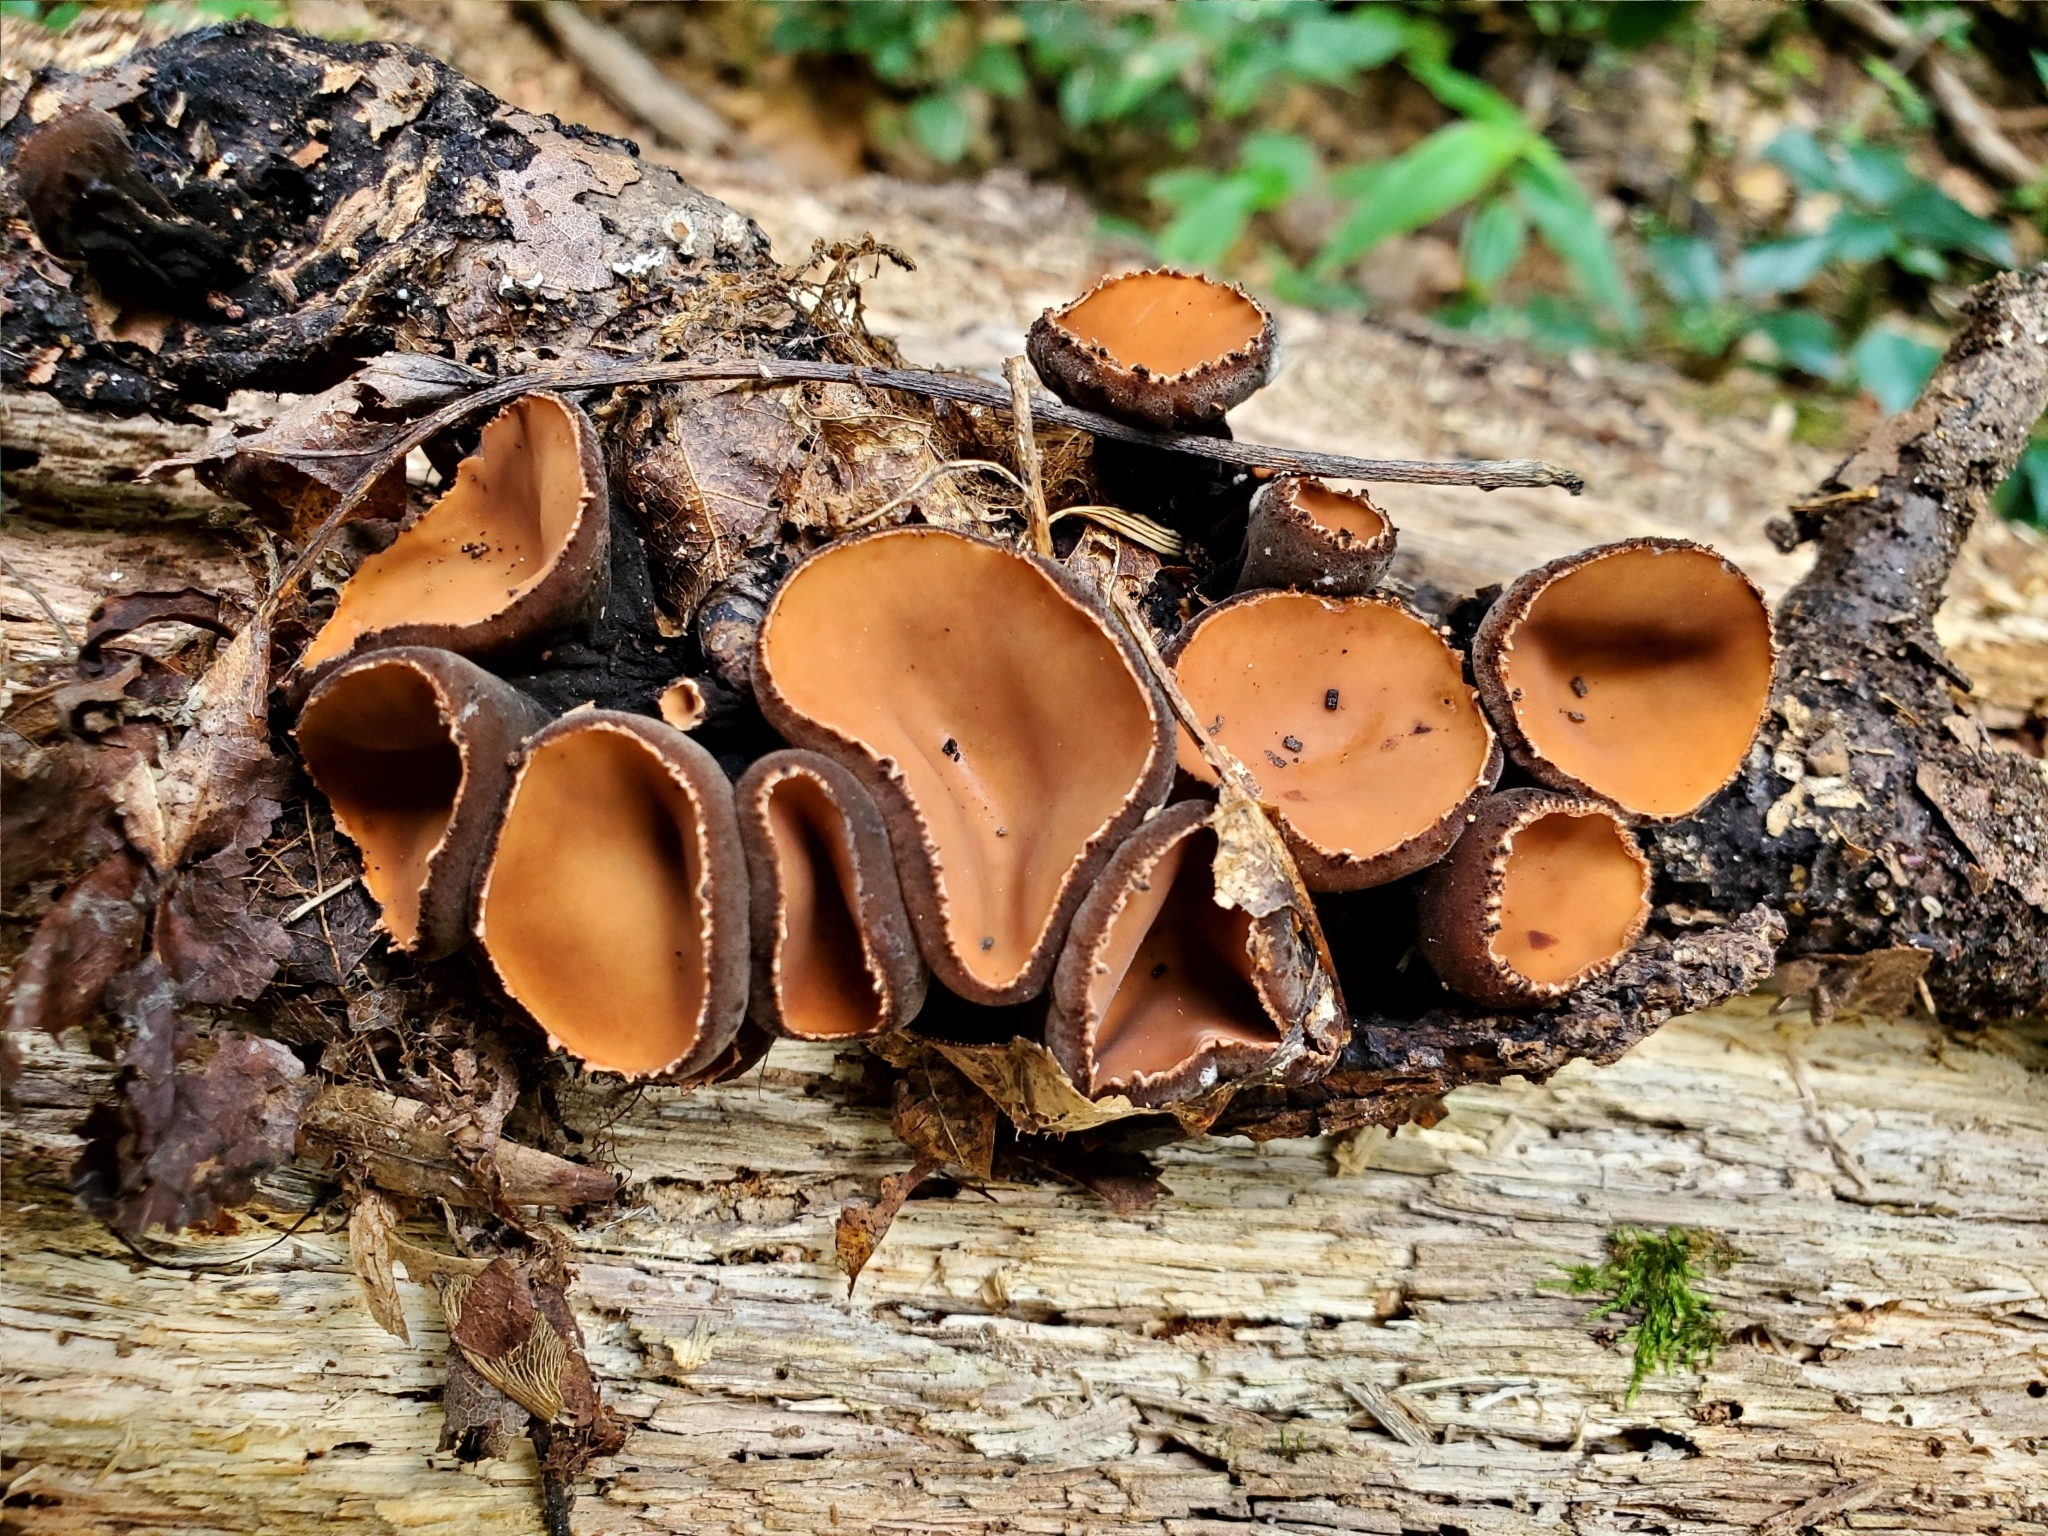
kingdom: Fungi
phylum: Ascomycota
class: Pezizomycetes
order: Pezizales
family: Sarcosomataceae
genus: Galiella
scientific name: Galiella rufa
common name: Hairy rubber cup
